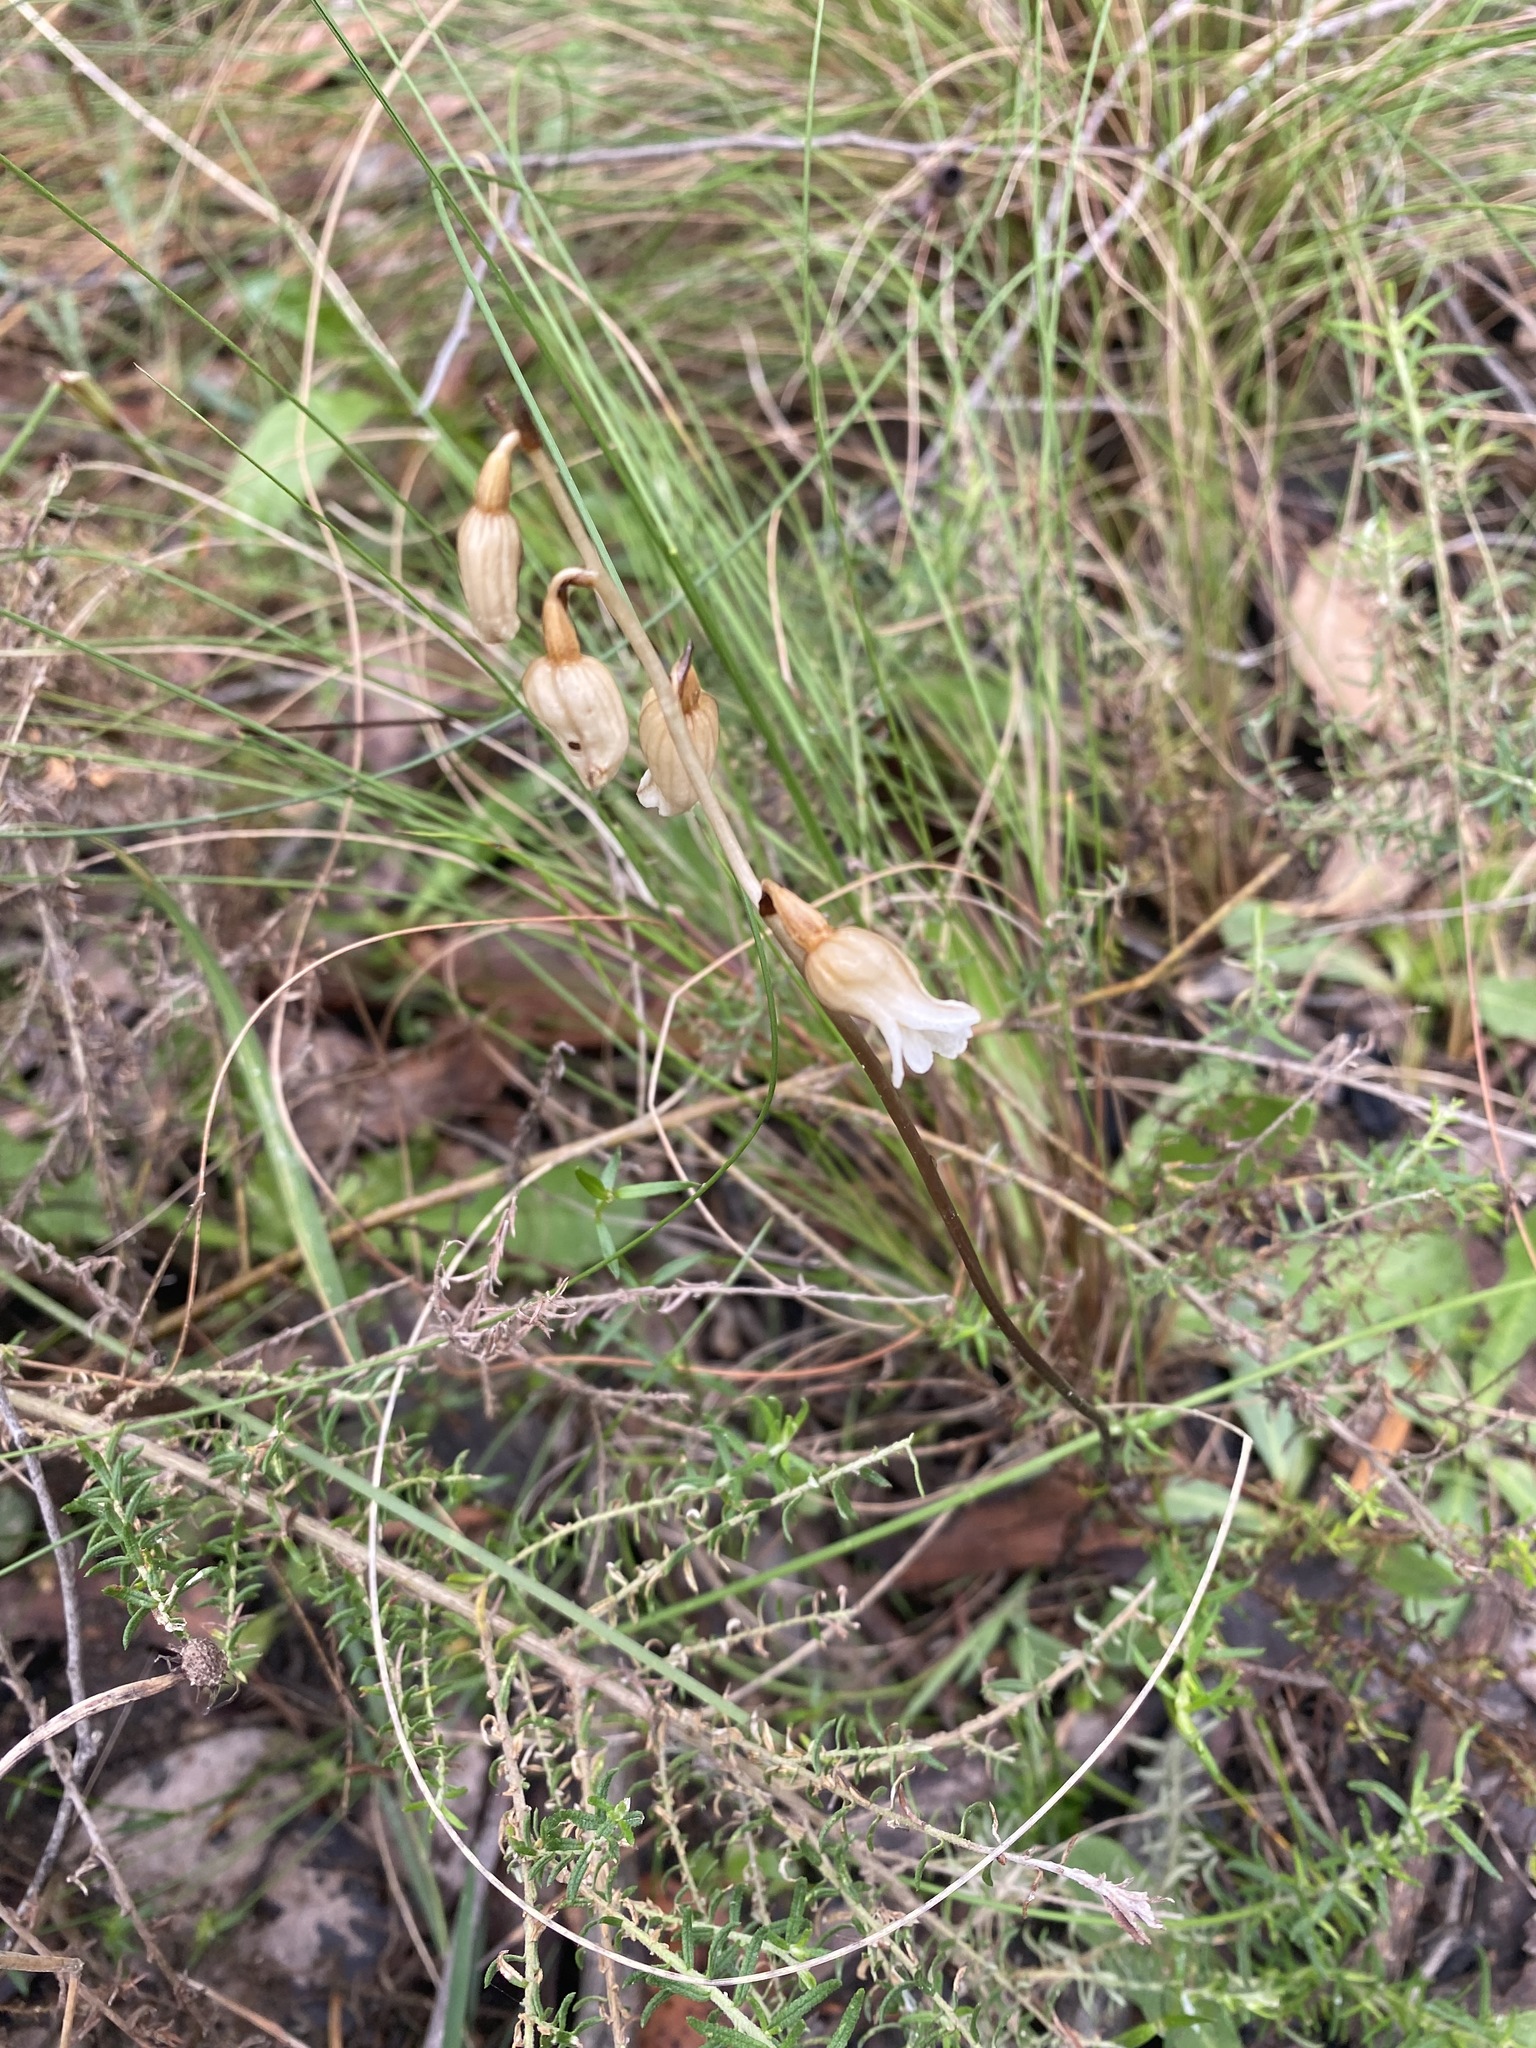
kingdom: Plantae
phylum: Tracheophyta
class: Liliopsida
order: Asparagales
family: Orchidaceae
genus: Gastrodia
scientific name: Gastrodia sesamoides
